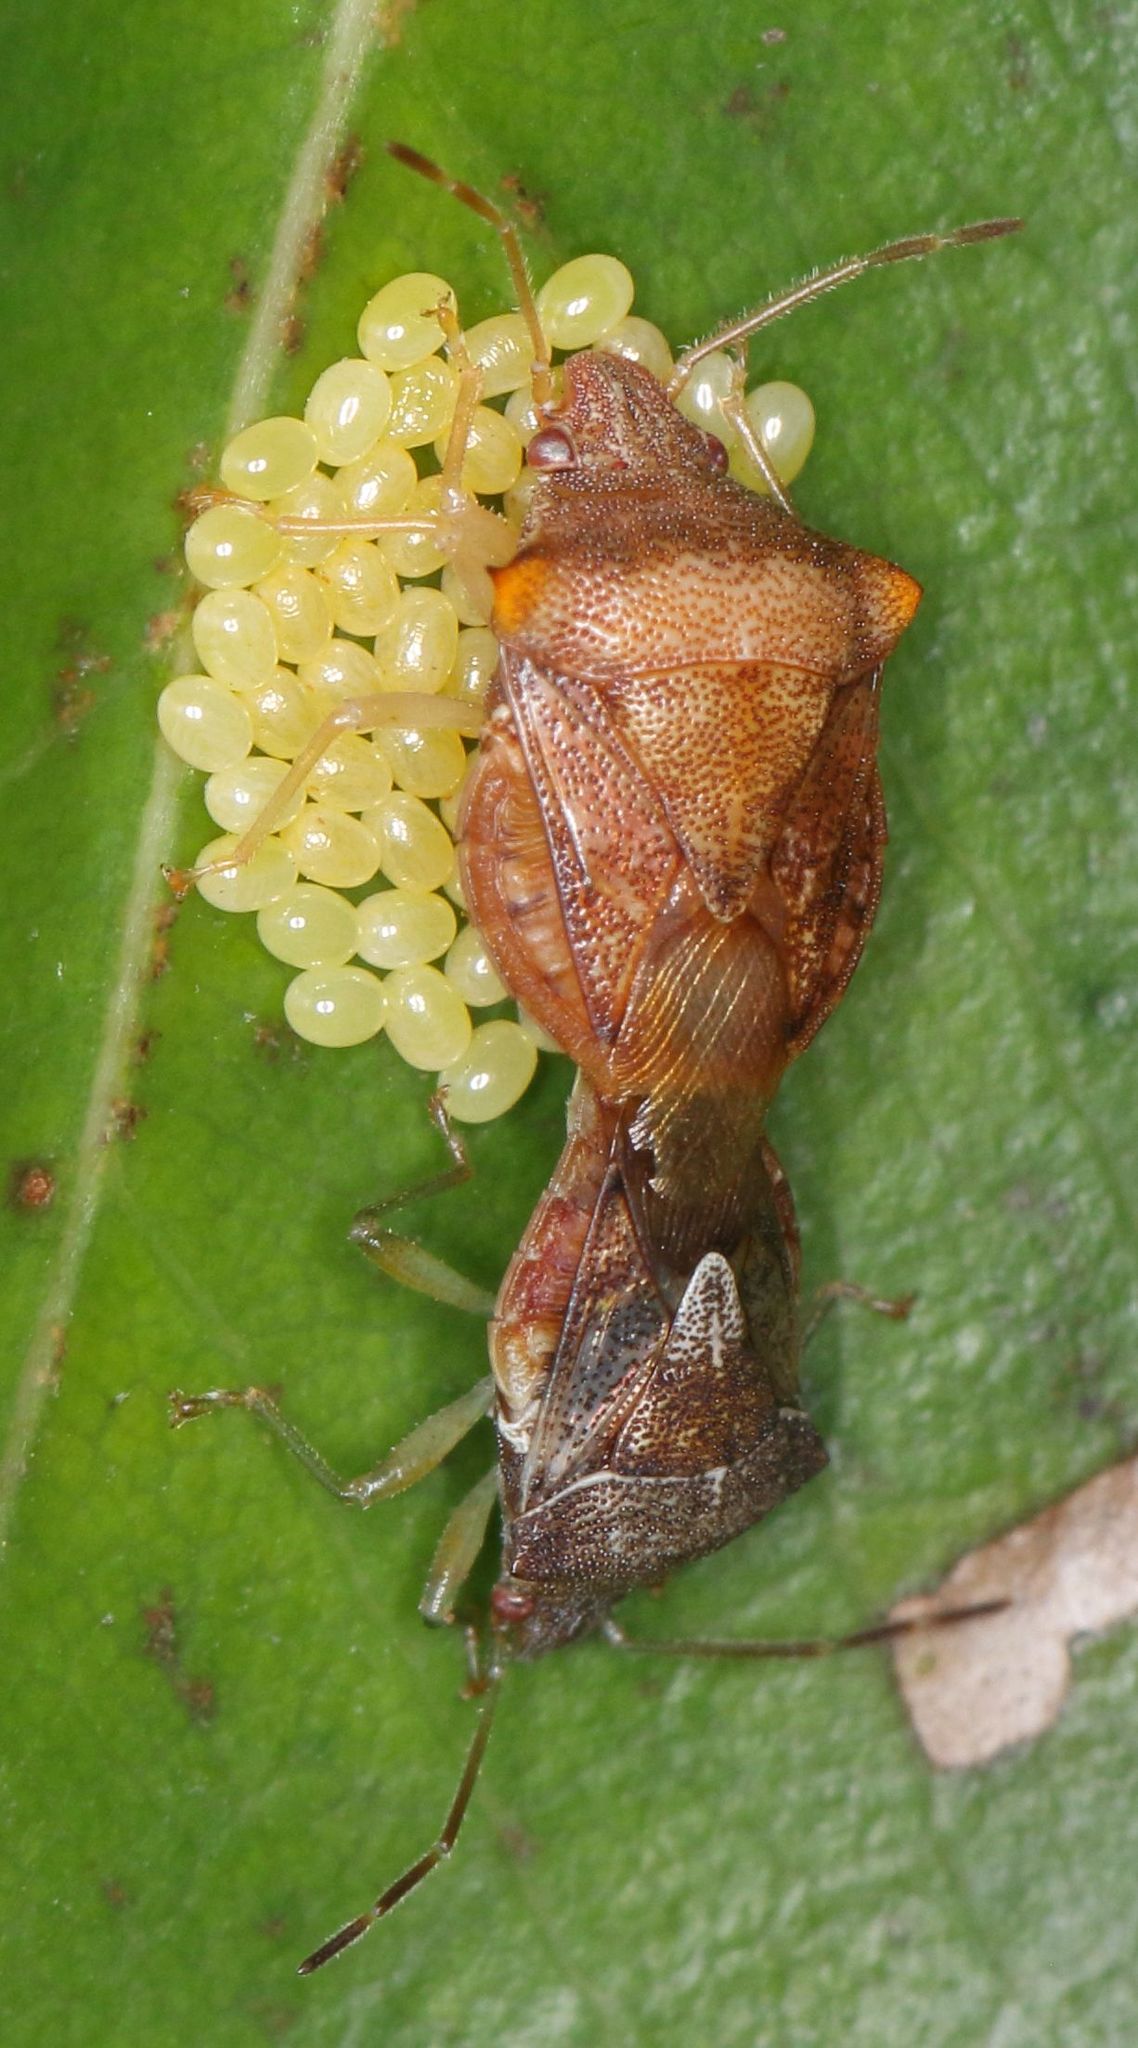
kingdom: Animalia
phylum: Arthropoda
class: Insecta
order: Hemiptera
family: Acanthosomatidae
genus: Uhlunga
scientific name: Uhlunga typica
